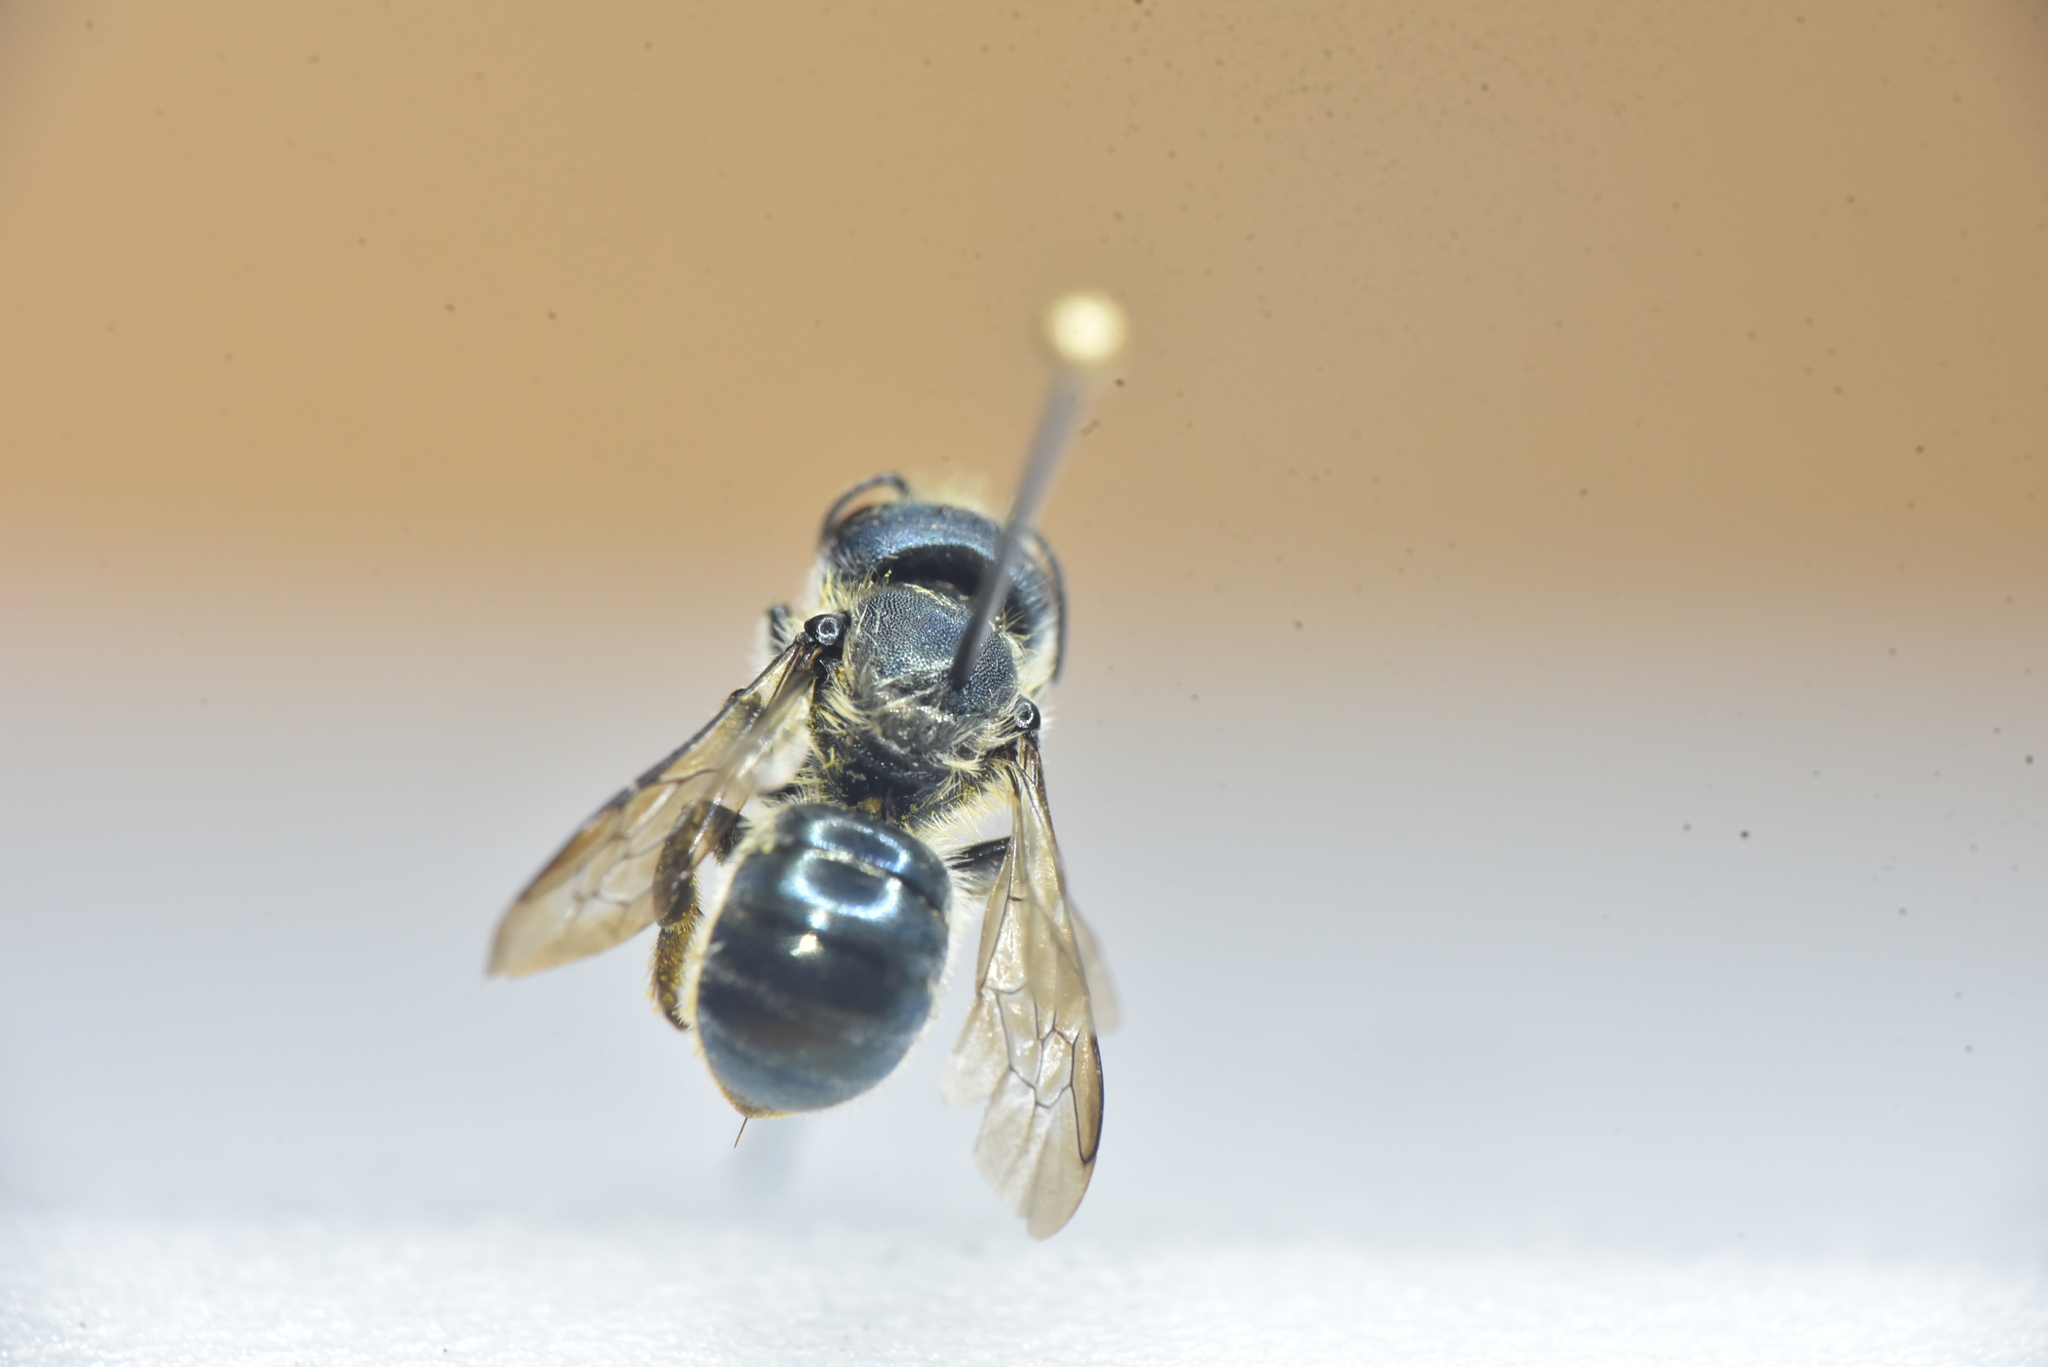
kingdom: Animalia
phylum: Arthropoda
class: Insecta
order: Hymenoptera
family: Megachilidae
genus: Osmia
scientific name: Osmia coloradensis
